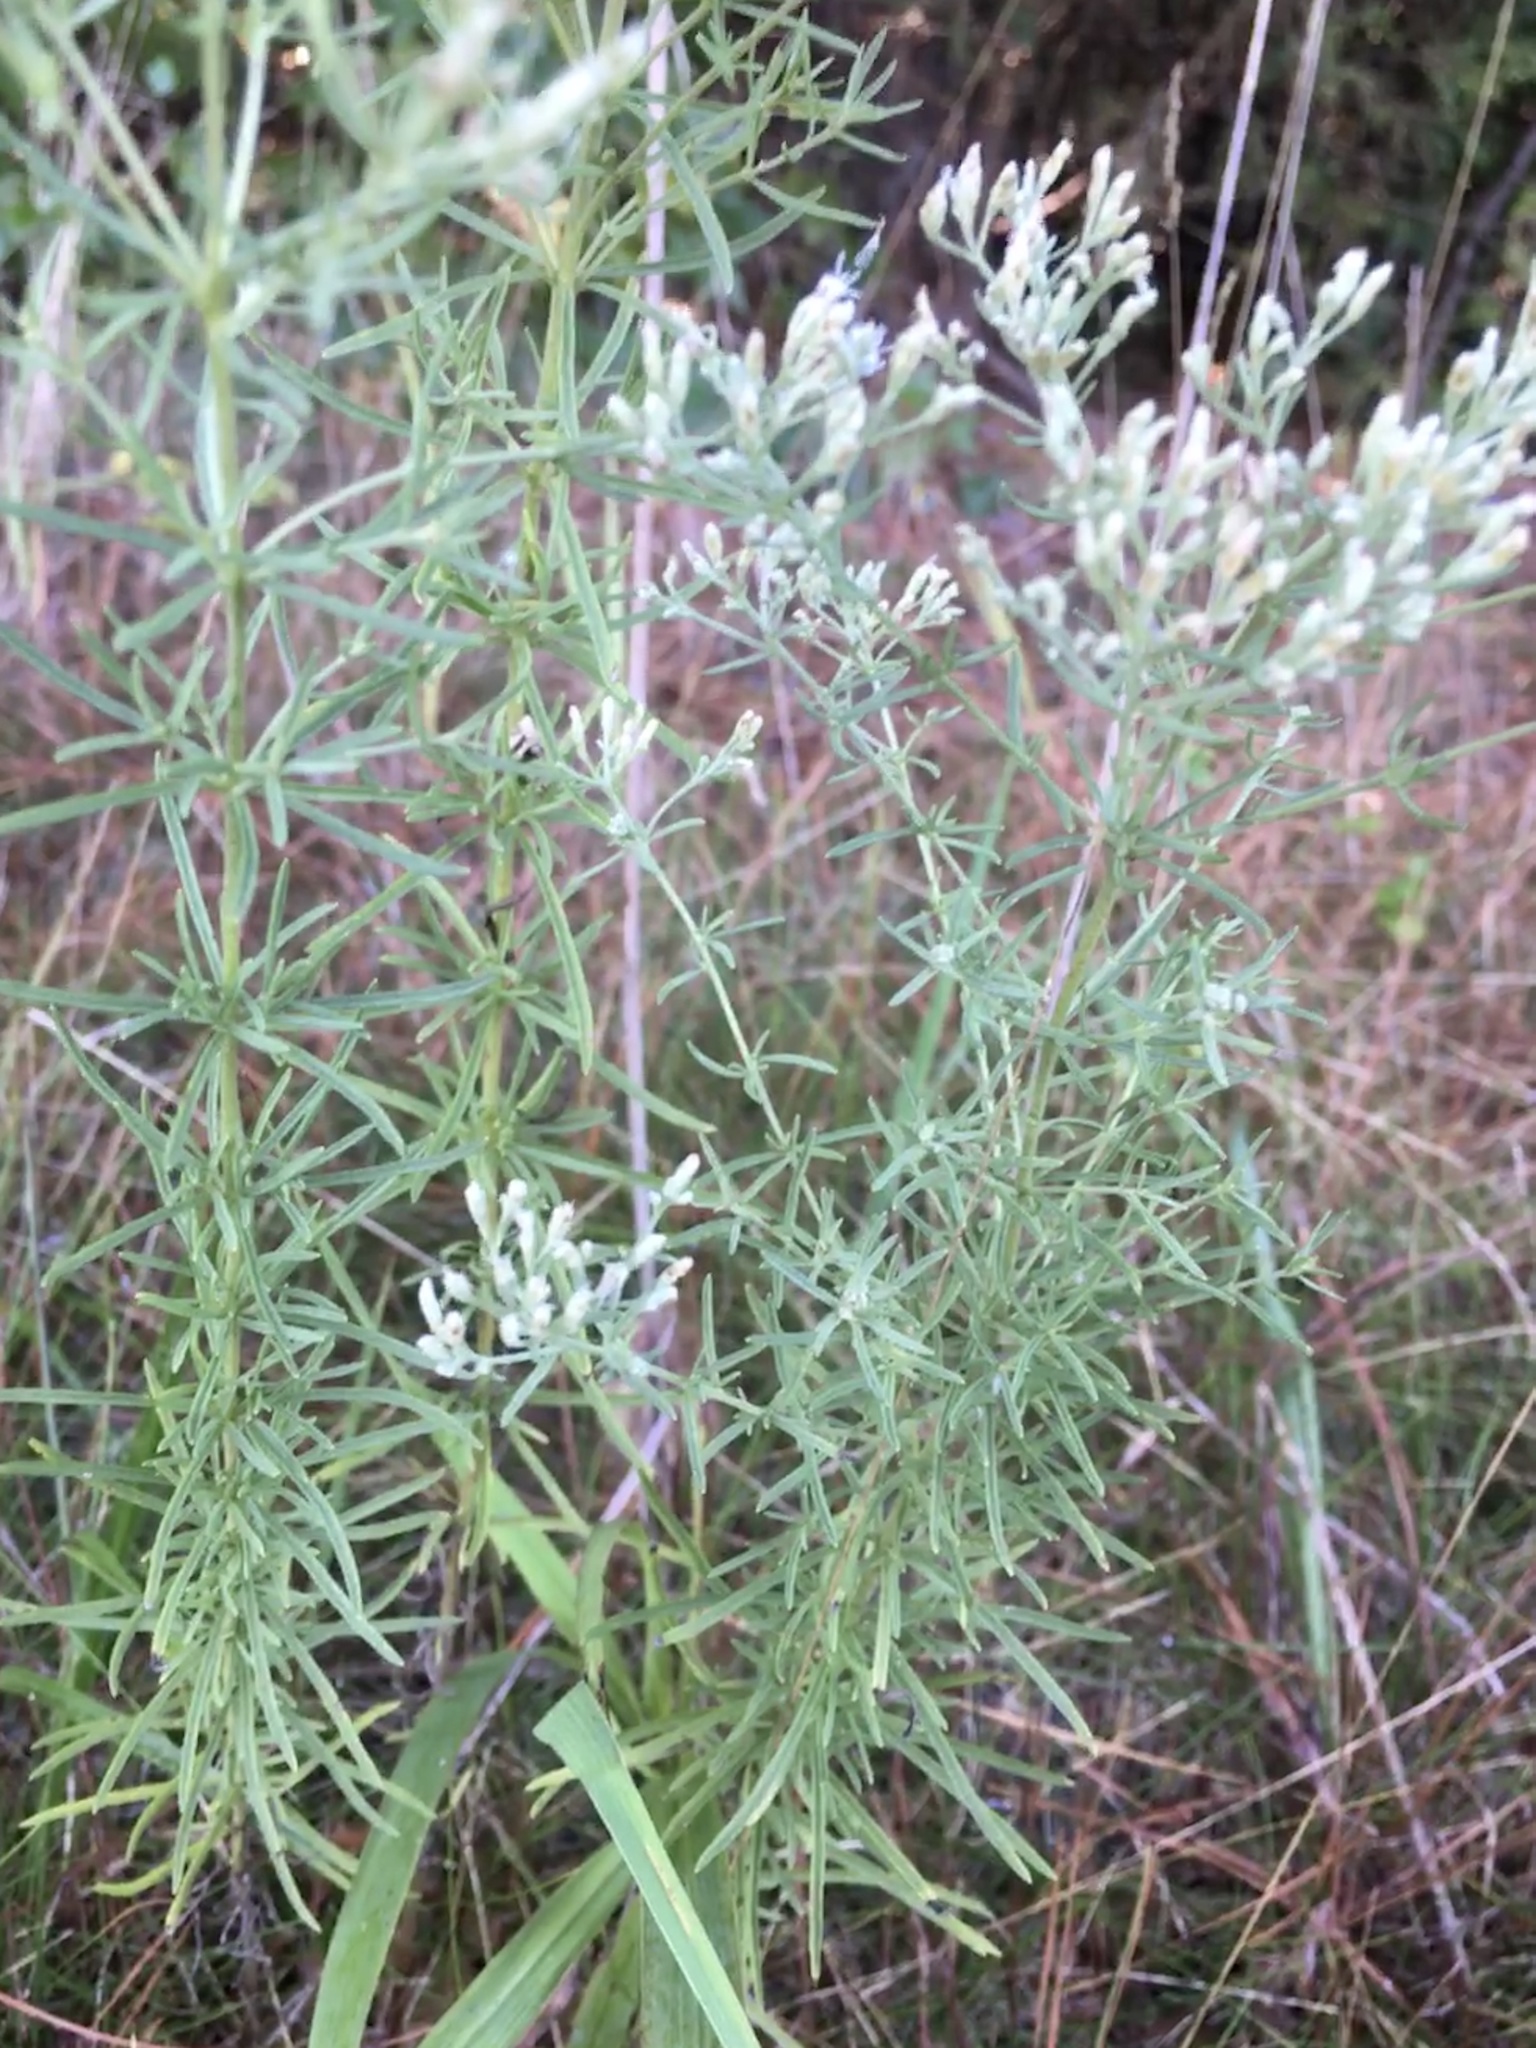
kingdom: Plantae
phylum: Tracheophyta
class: Magnoliopsida
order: Asterales
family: Asteraceae
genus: Eupatorium
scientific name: Eupatorium hyssopifolium
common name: Hyssop-leaf thoroughwort
